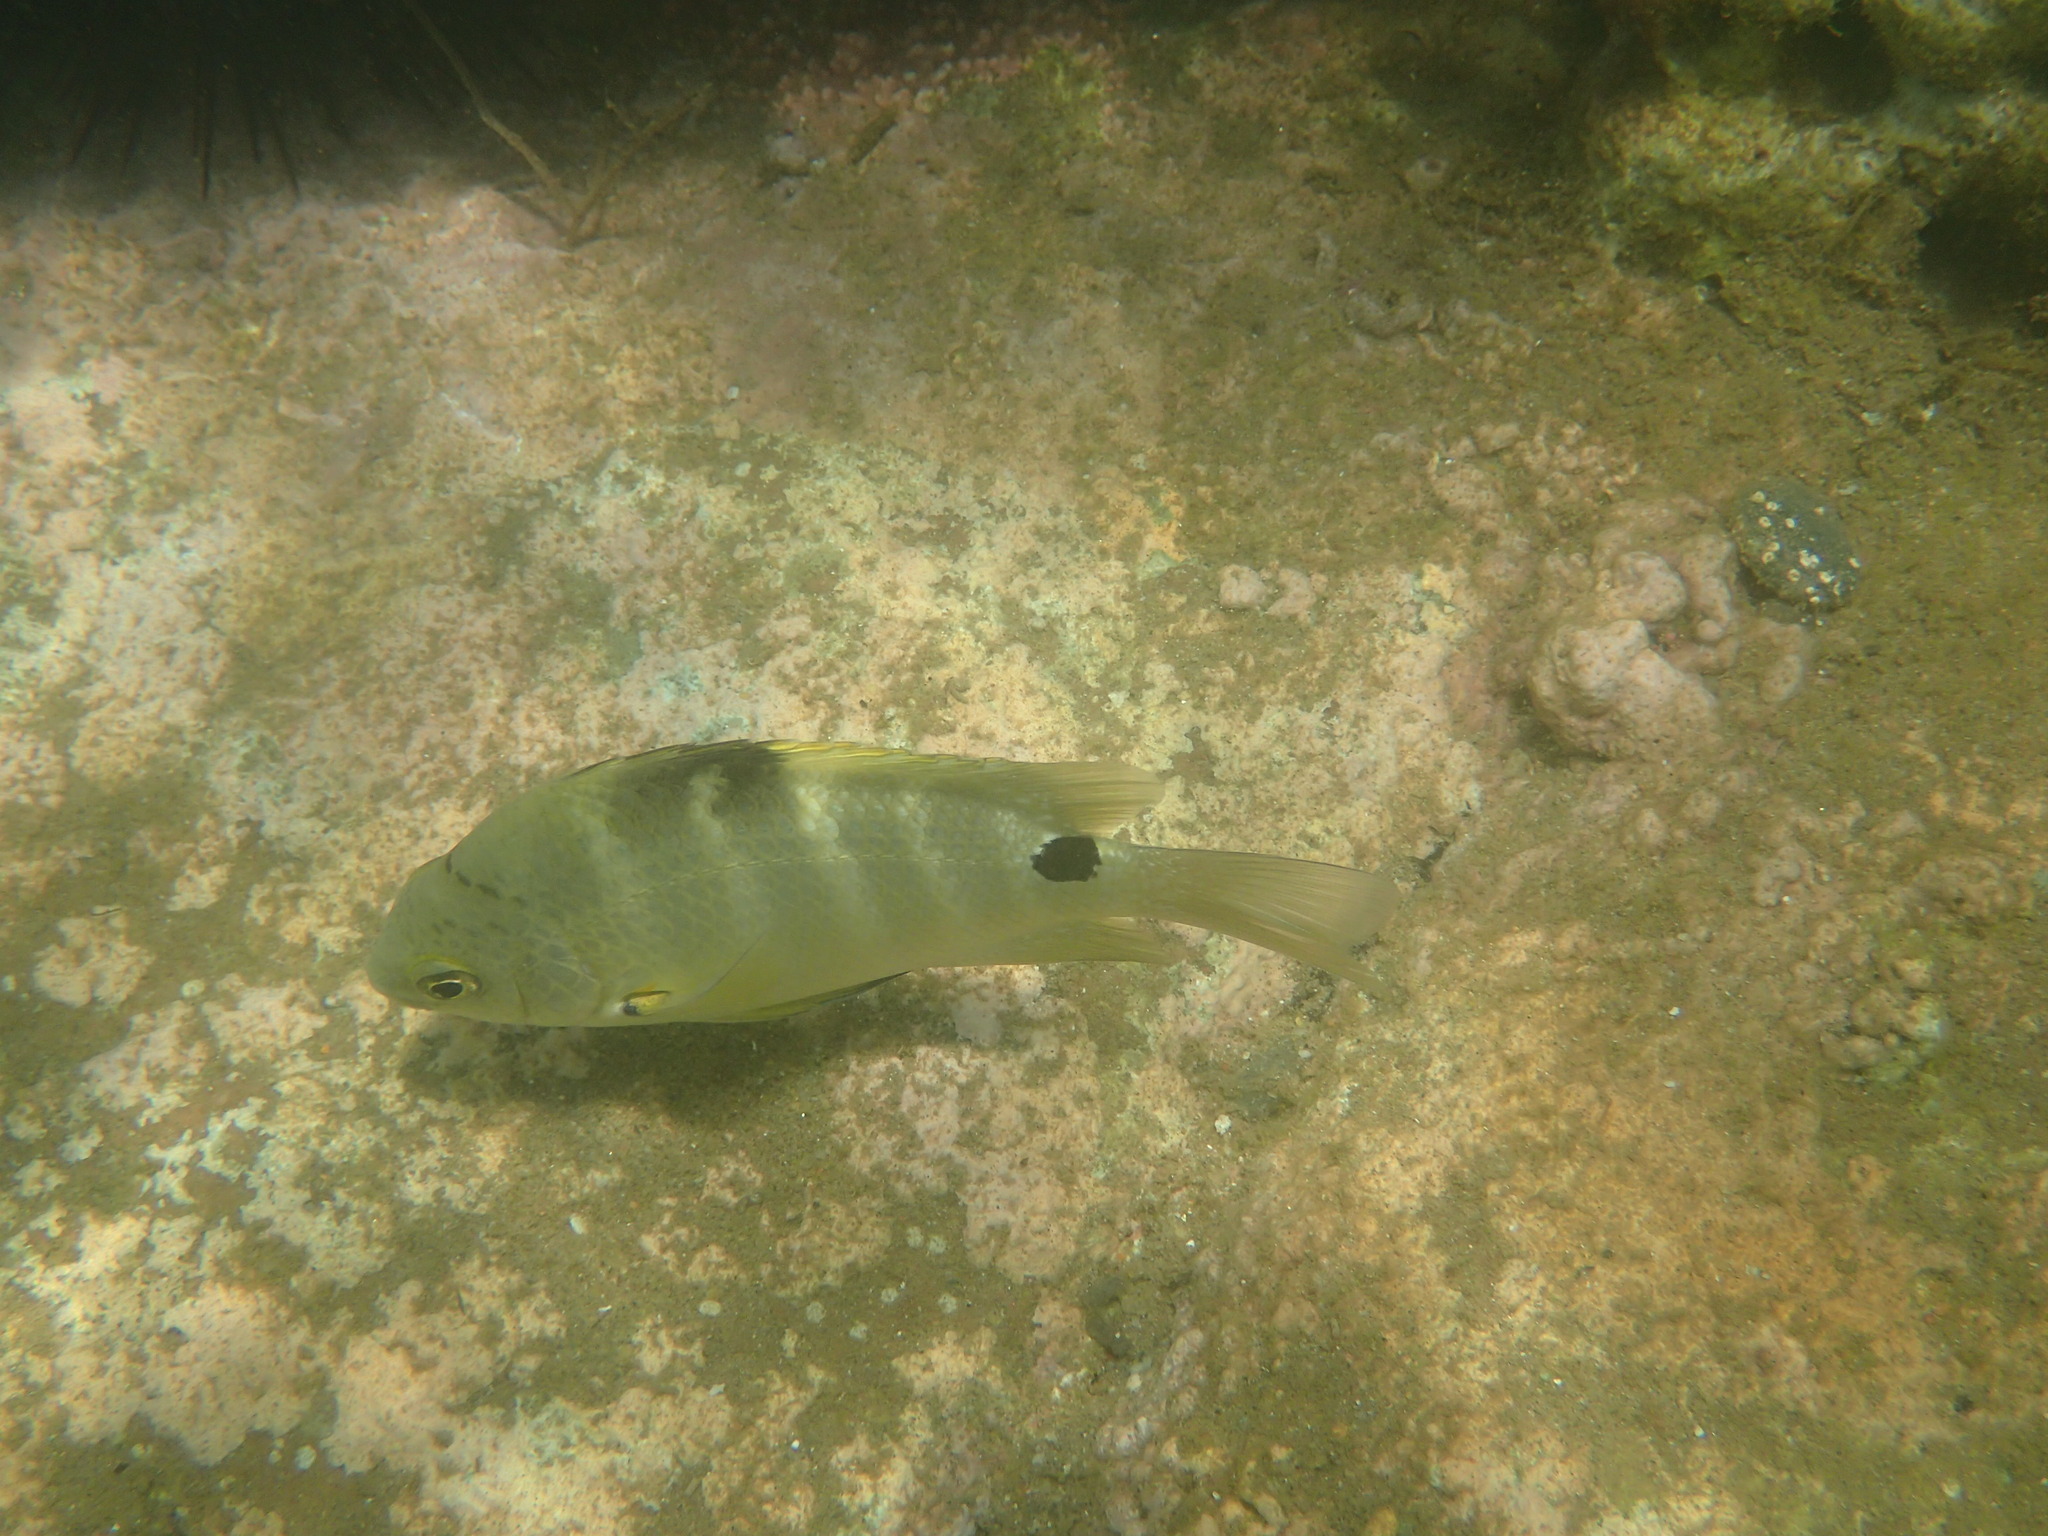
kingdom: Animalia
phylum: Chordata
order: Perciformes
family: Pomacentridae
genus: Abudefduf
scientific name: Abudefduf sordidus
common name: Blackspot sergeant
